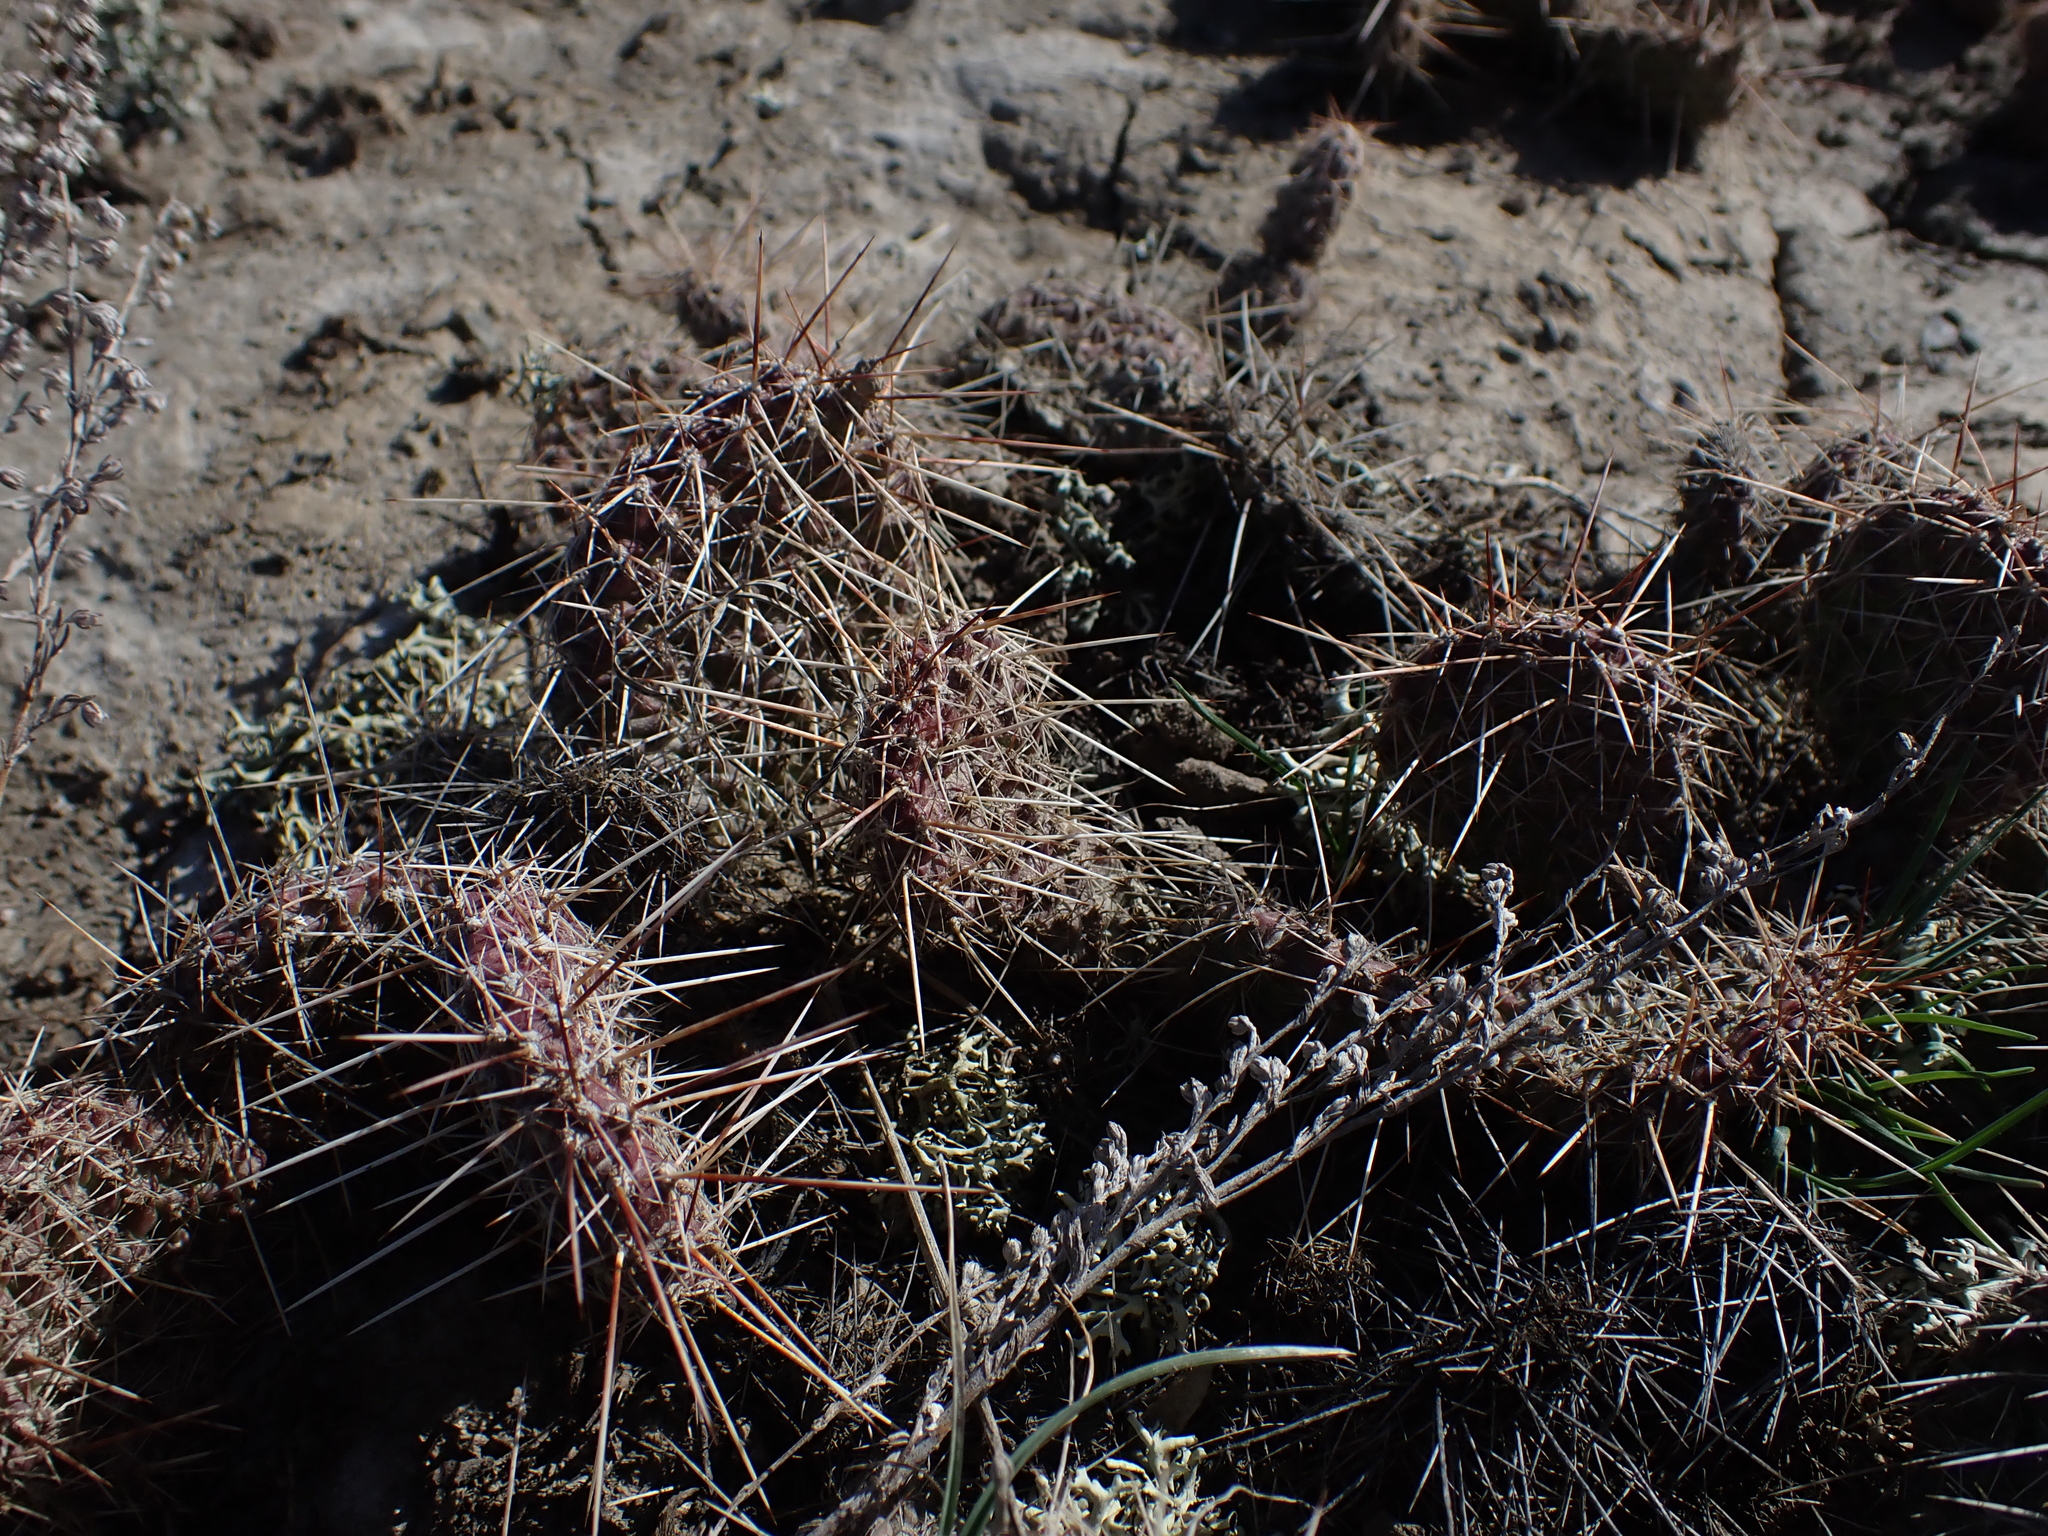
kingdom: Plantae
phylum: Tracheophyta
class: Magnoliopsida
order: Caryophyllales
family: Cactaceae
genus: Opuntia
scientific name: Opuntia polyacantha
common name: Plains prickly-pear
